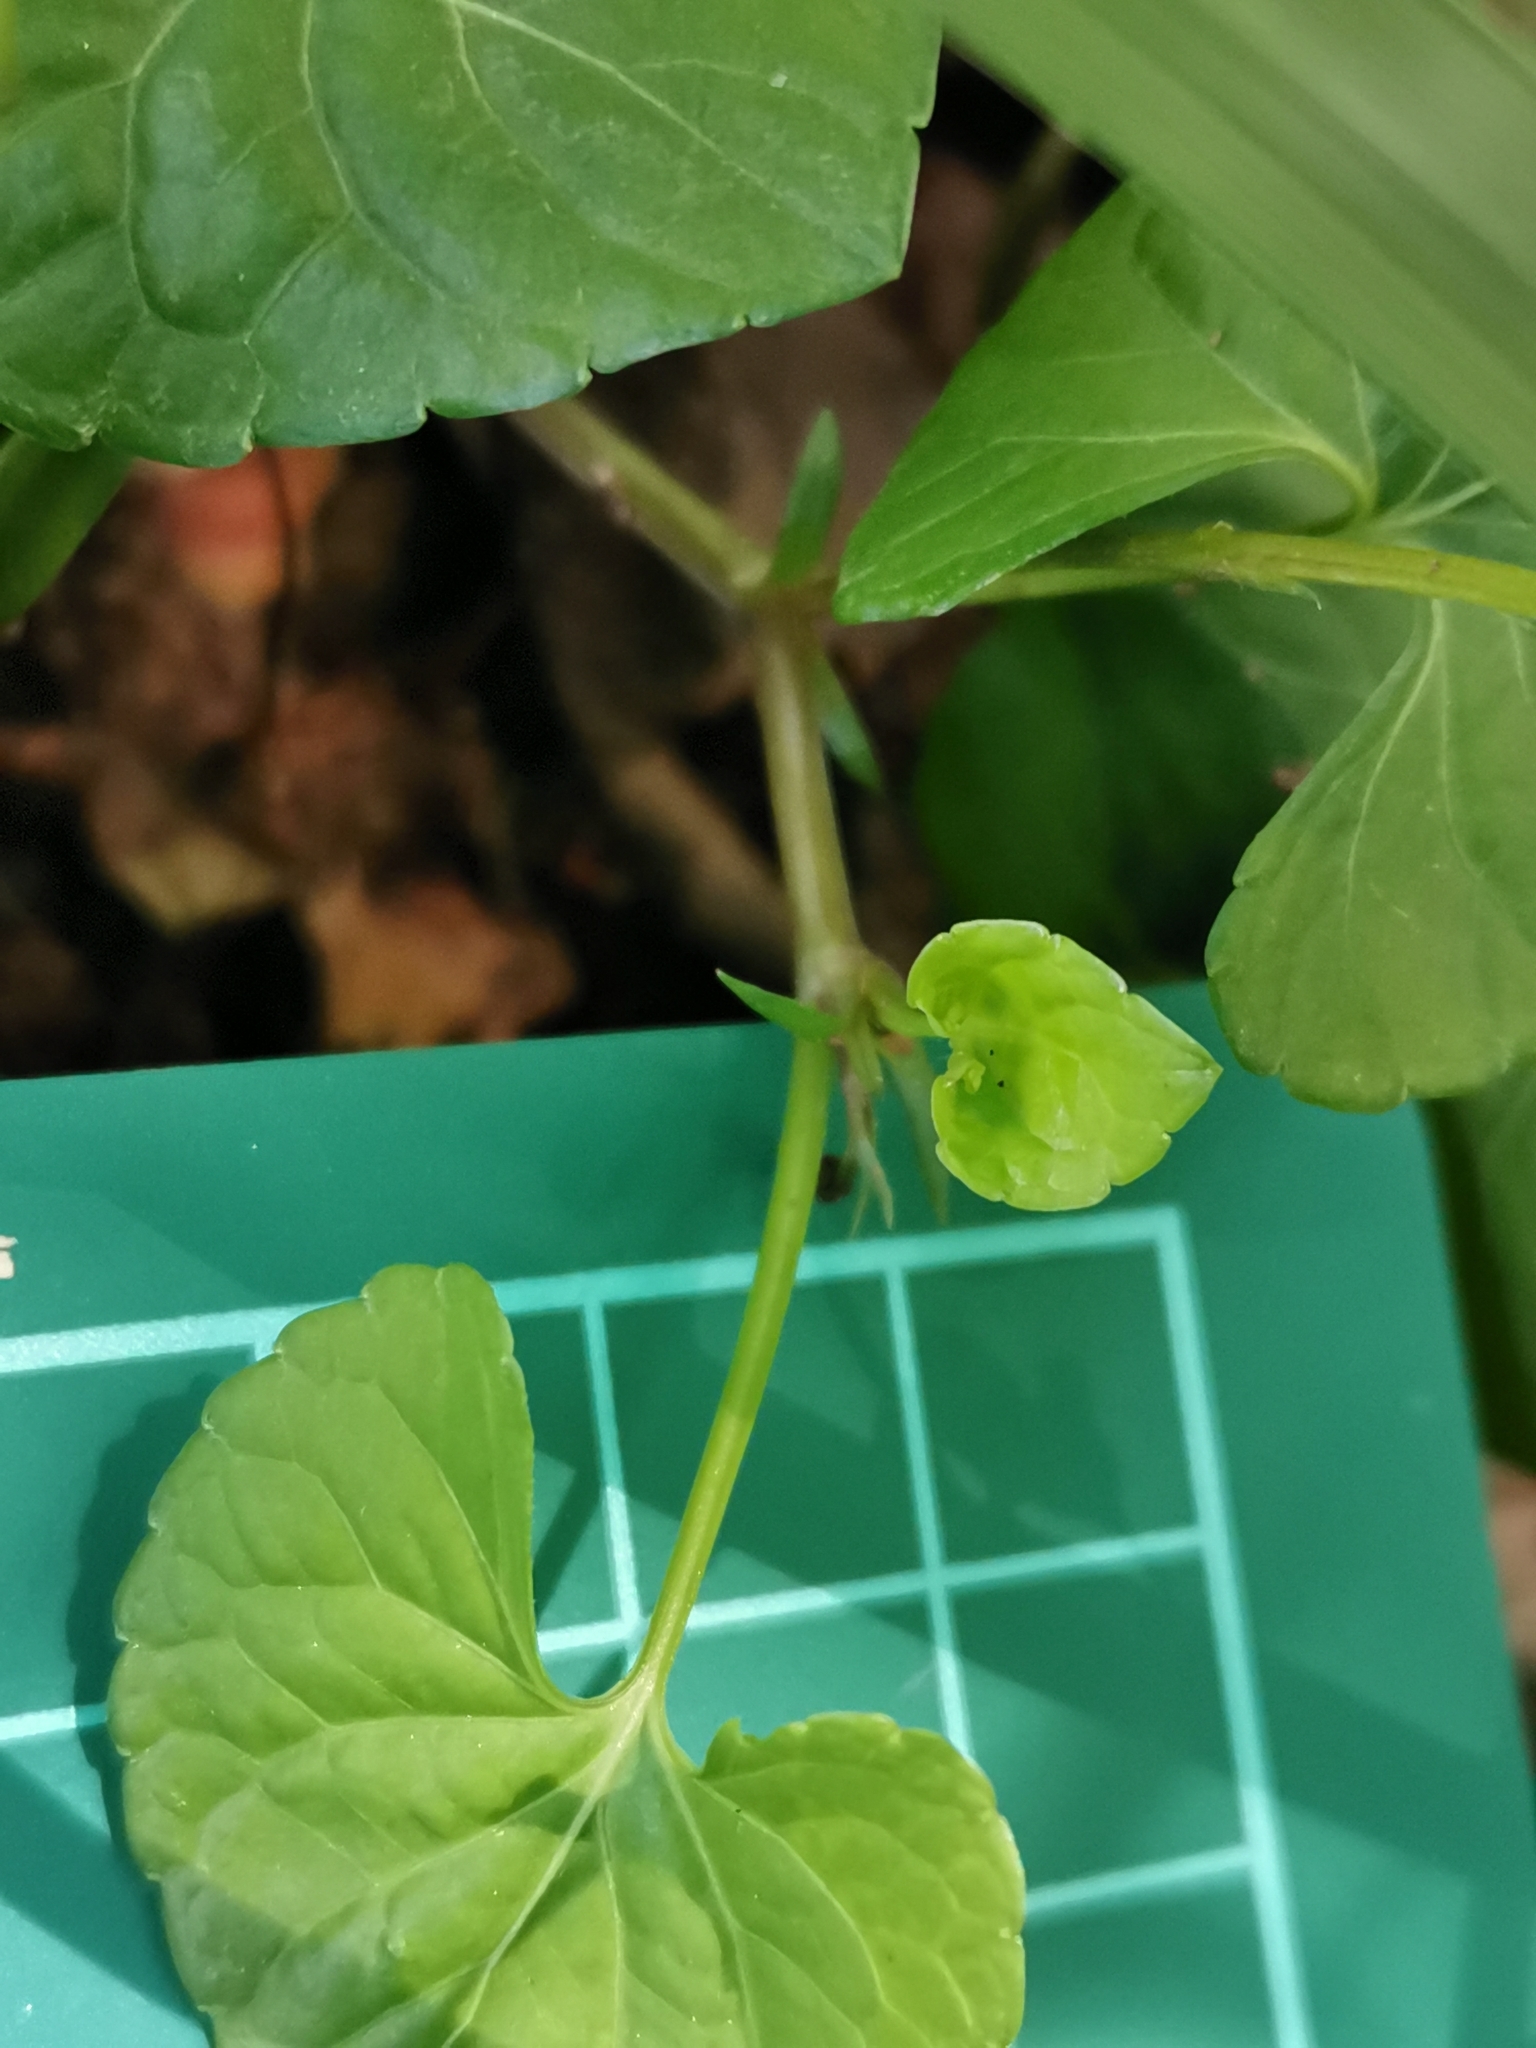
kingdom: Plantae
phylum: Tracheophyta
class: Magnoliopsida
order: Malpighiales
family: Violaceae
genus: Viola
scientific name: Viola
